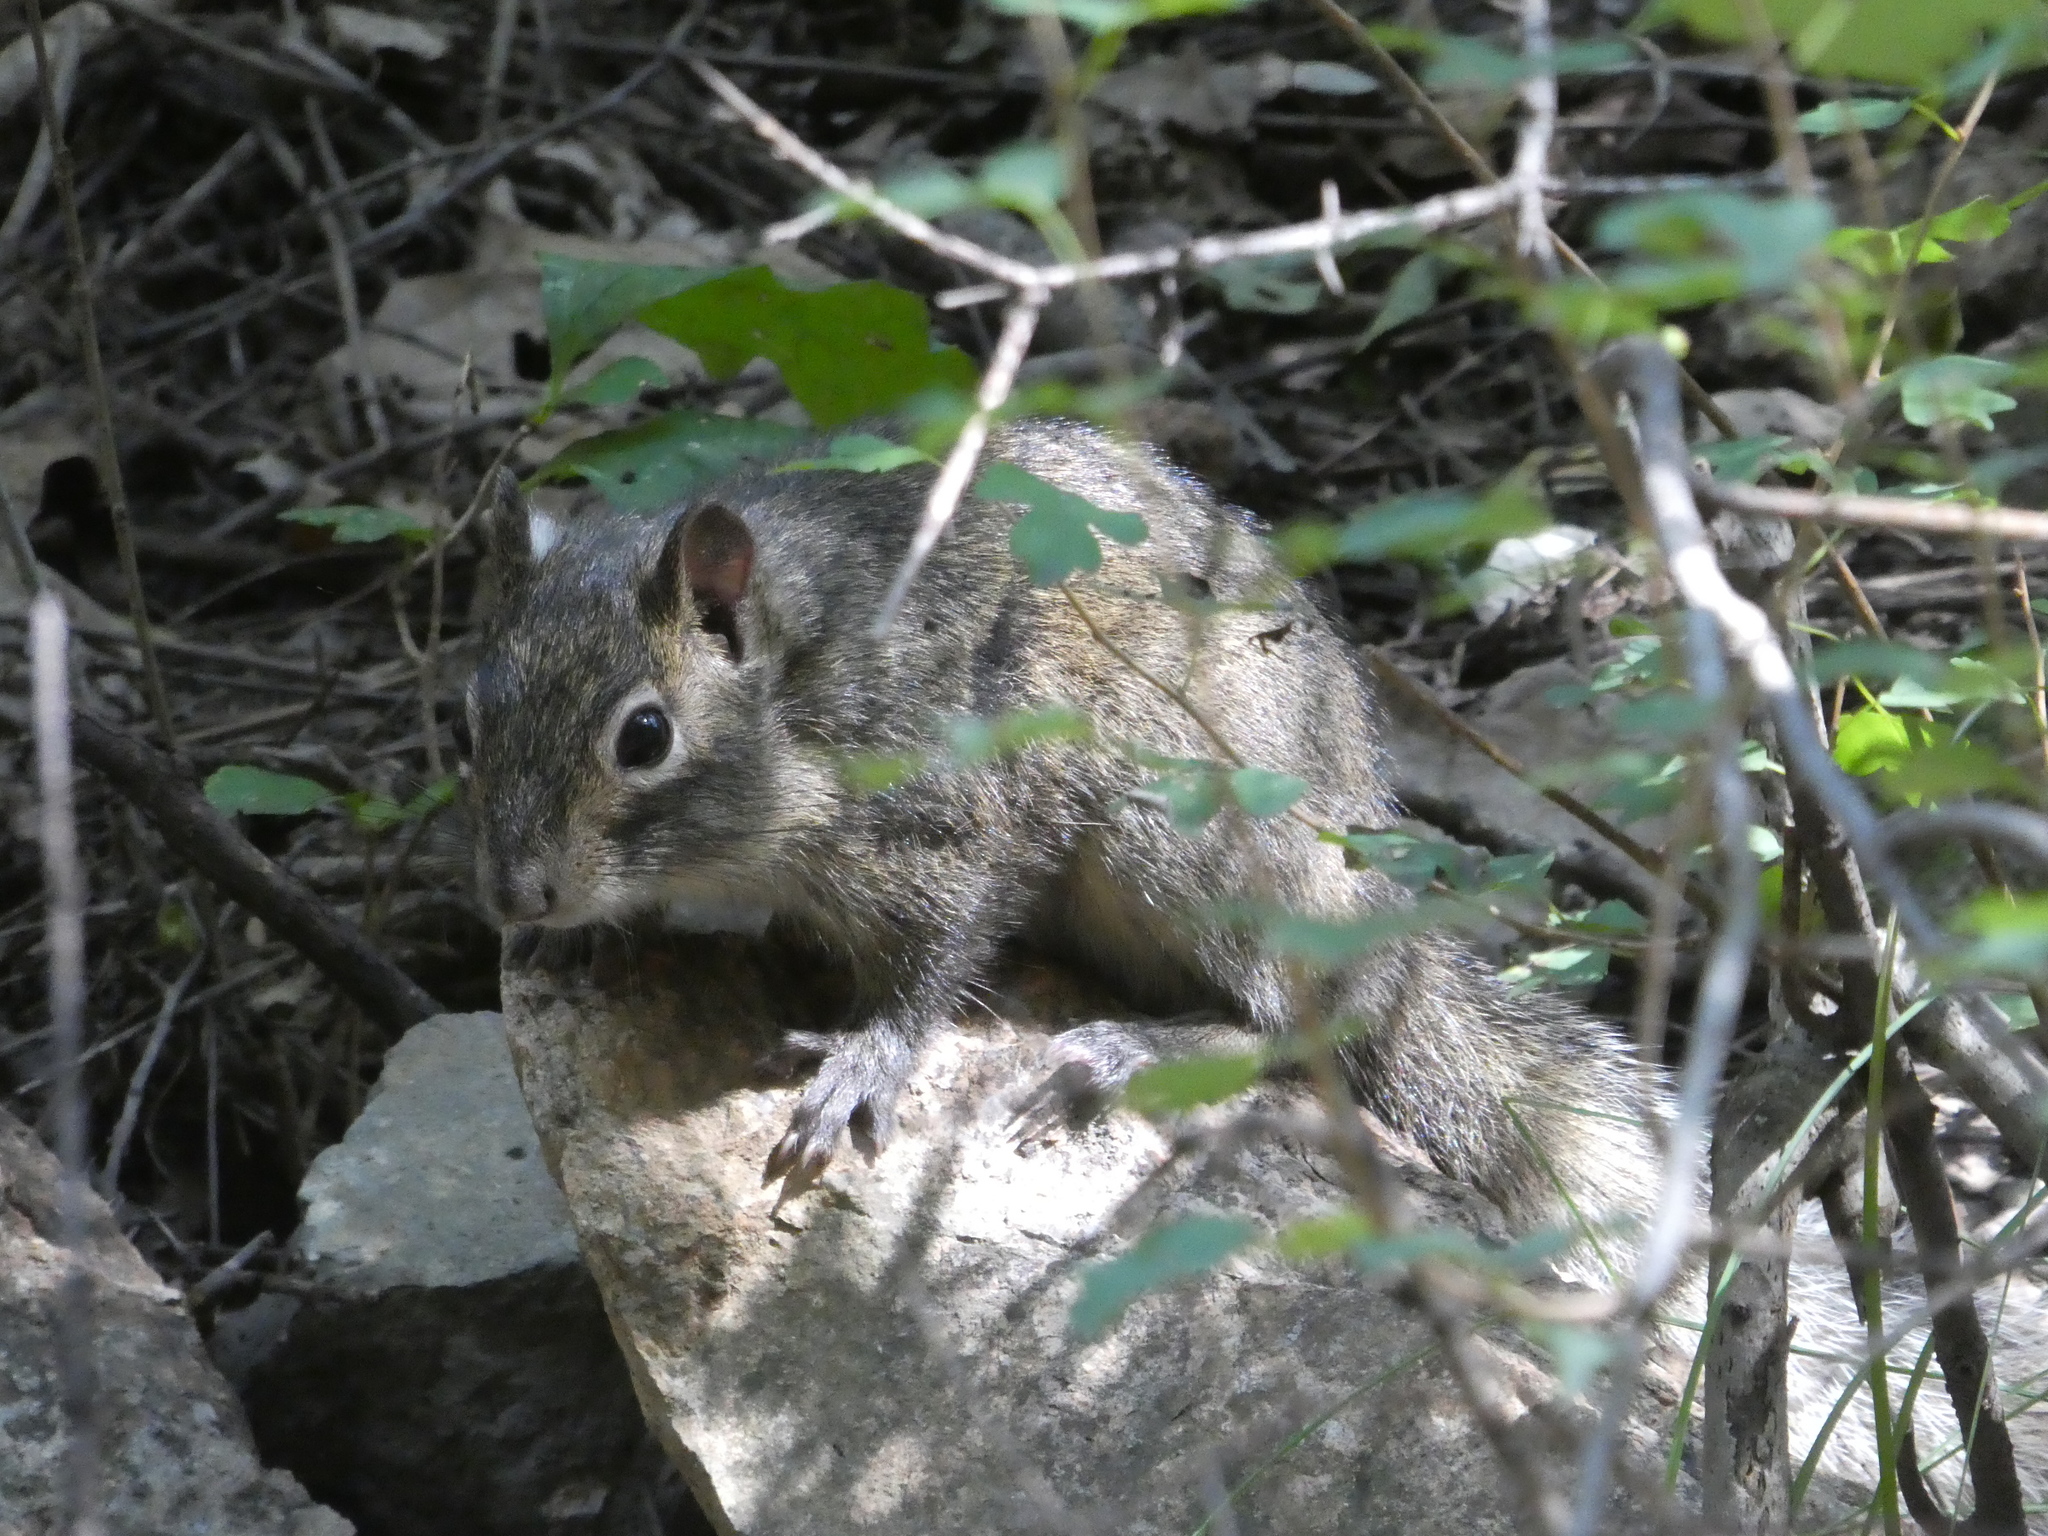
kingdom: Animalia
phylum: Chordata
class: Mammalia
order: Rodentia
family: Sciuridae
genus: Sciurotamias
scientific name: Sciurotamias davidianus
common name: Père david's rock squirrel
